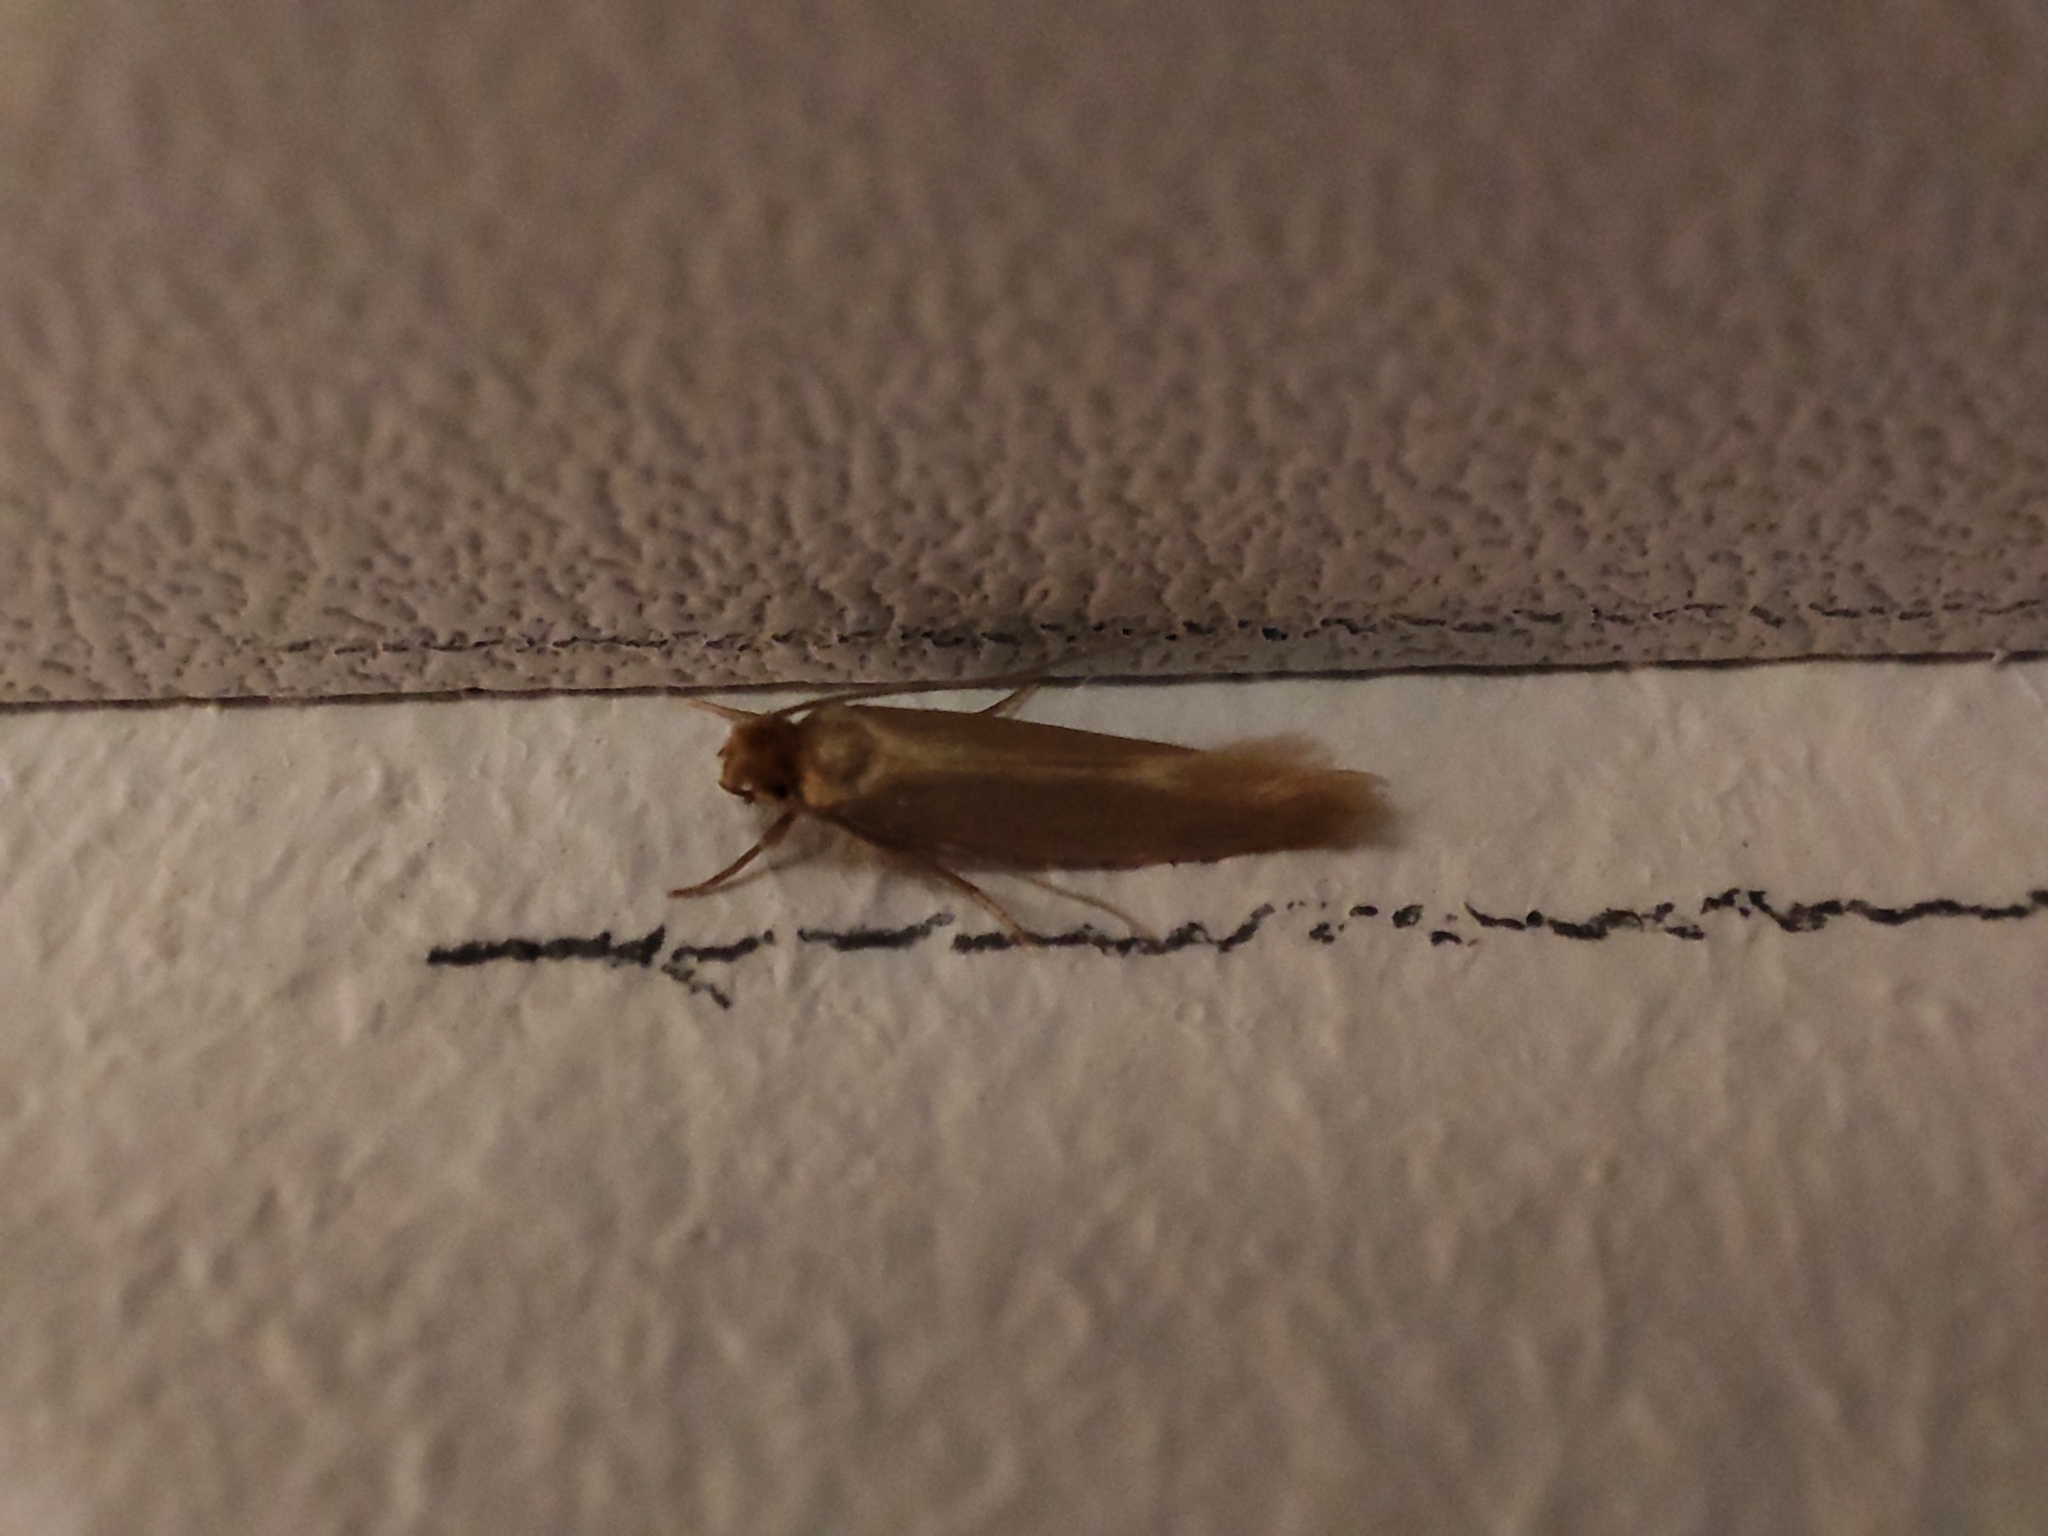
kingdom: Animalia
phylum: Arthropoda
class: Insecta
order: Lepidoptera
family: Tineidae
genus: Tineola
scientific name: Tineola bisselliella
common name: Webbing clothes moth
